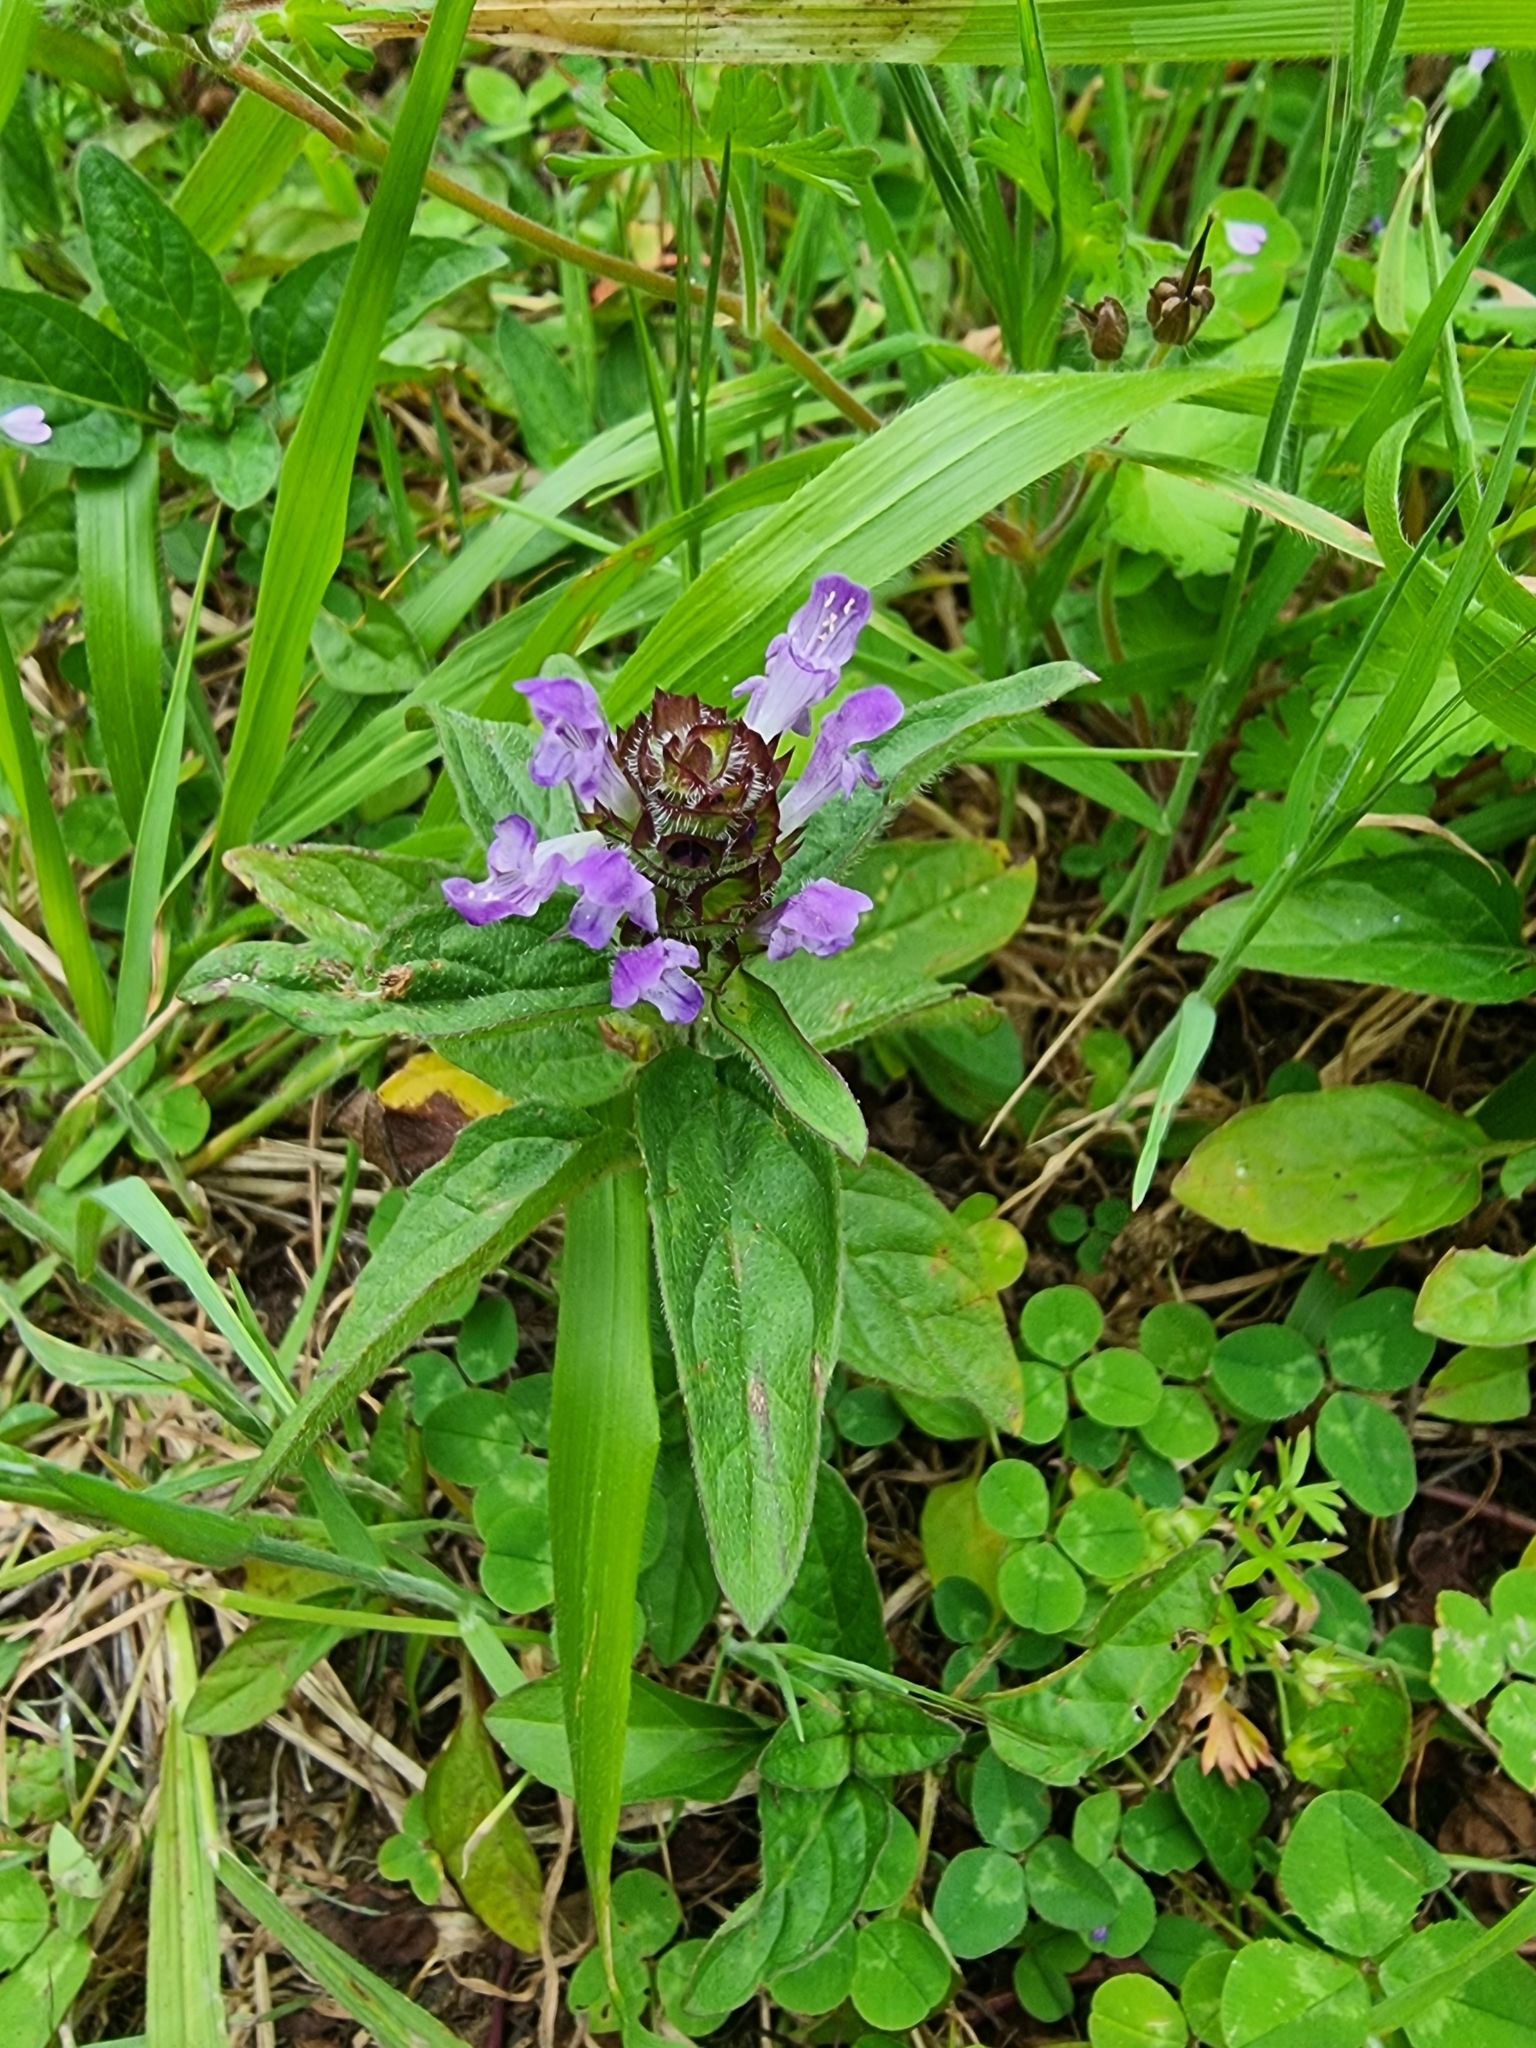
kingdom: Plantae
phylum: Tracheophyta
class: Magnoliopsida
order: Lamiales
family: Lamiaceae
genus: Prunella
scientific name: Prunella vulgaris
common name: Heal-all
